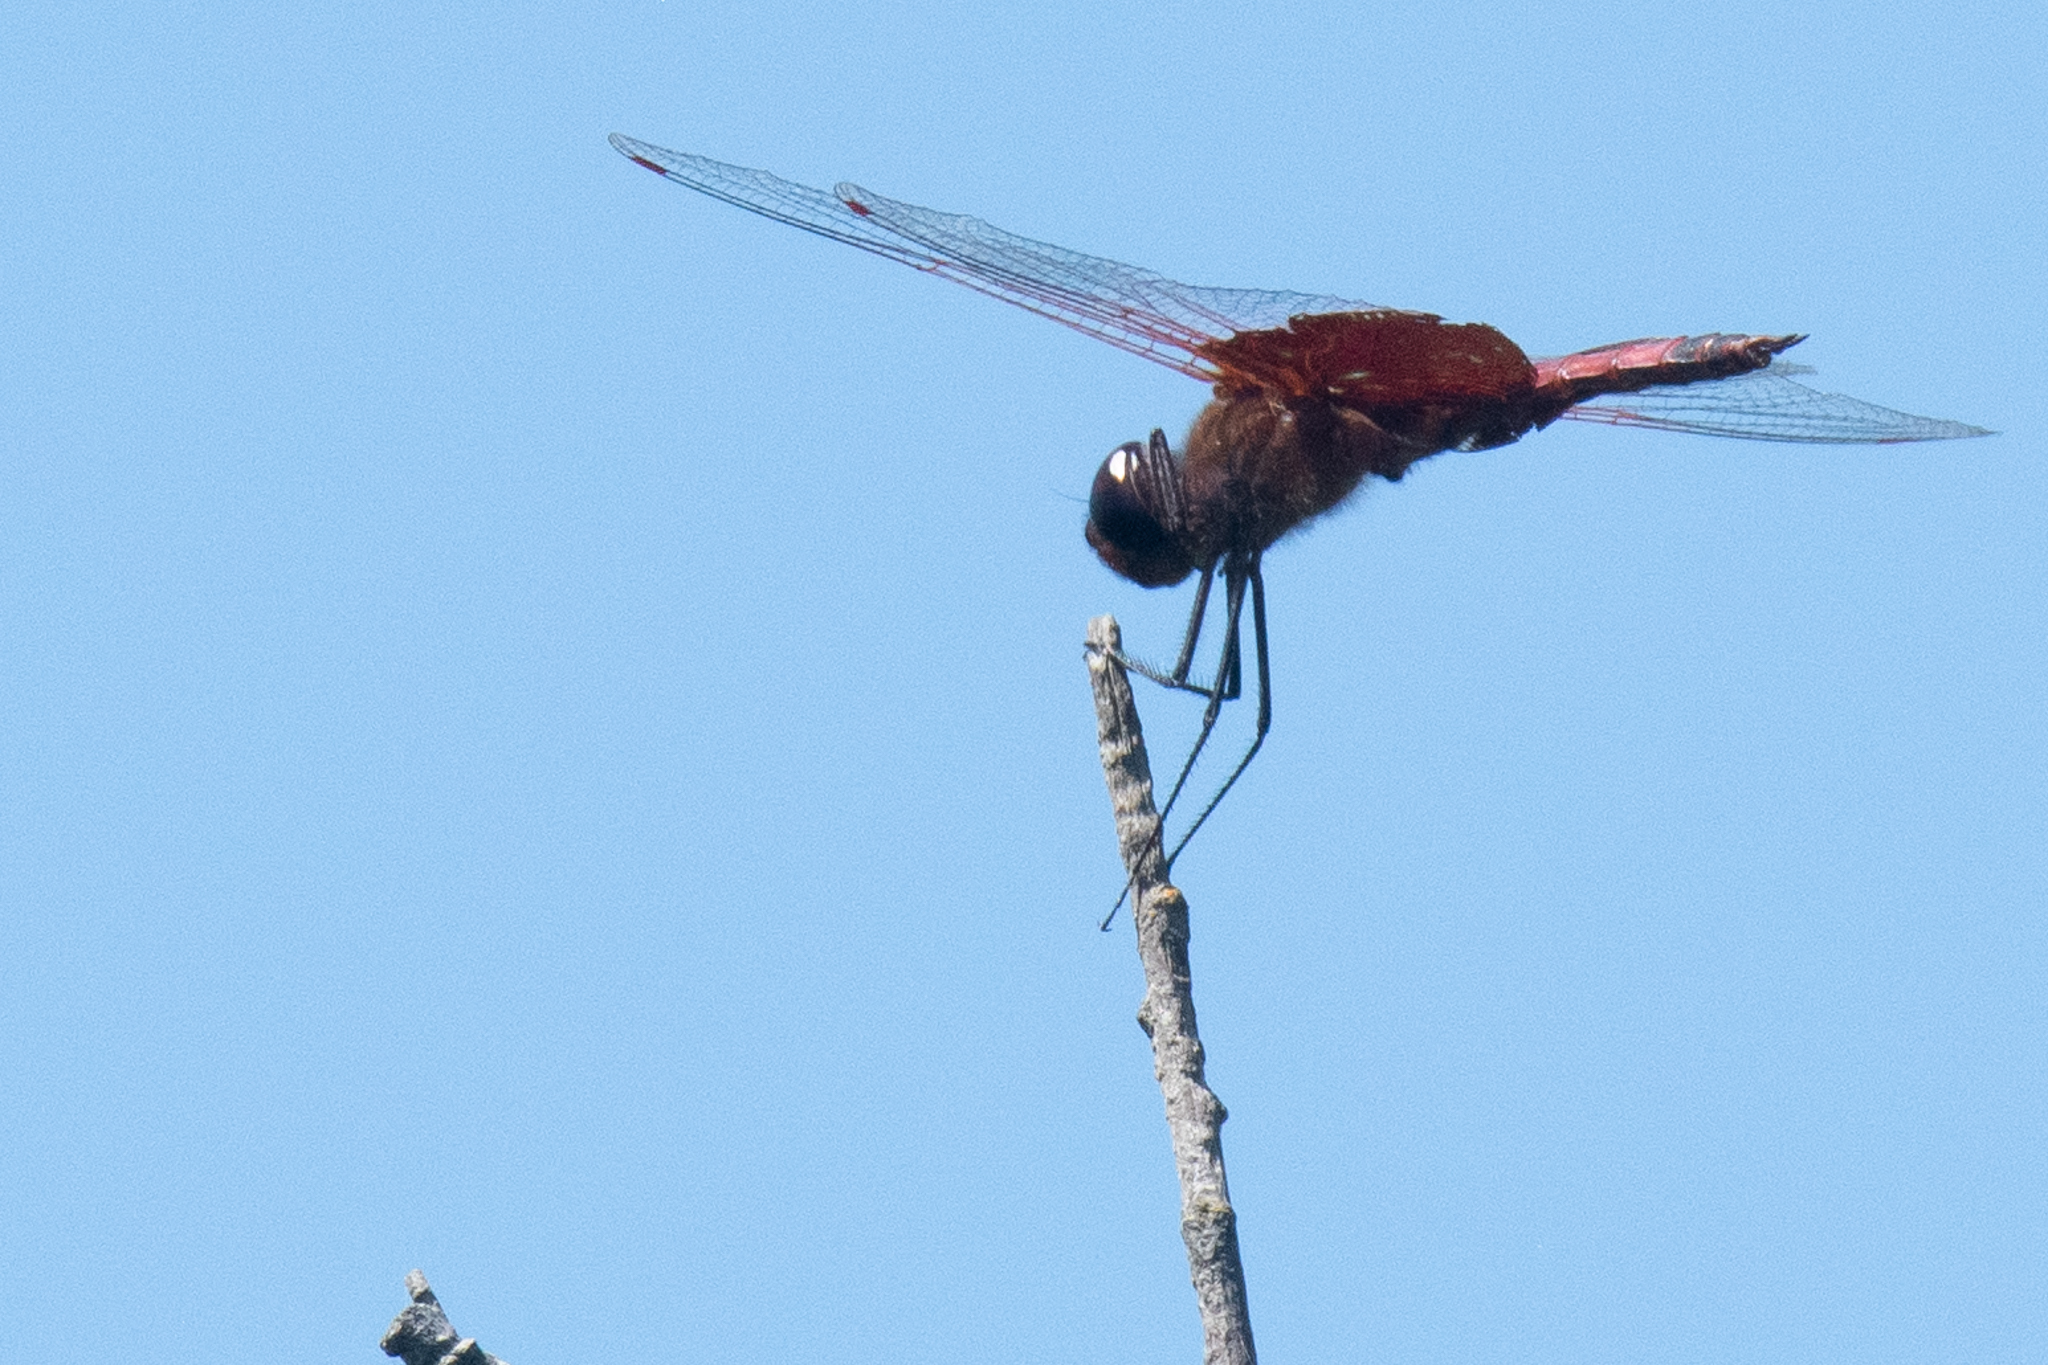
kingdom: Animalia
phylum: Arthropoda
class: Insecta
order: Odonata
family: Libellulidae
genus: Tramea
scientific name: Tramea carolina
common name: Carolina saddlebags
